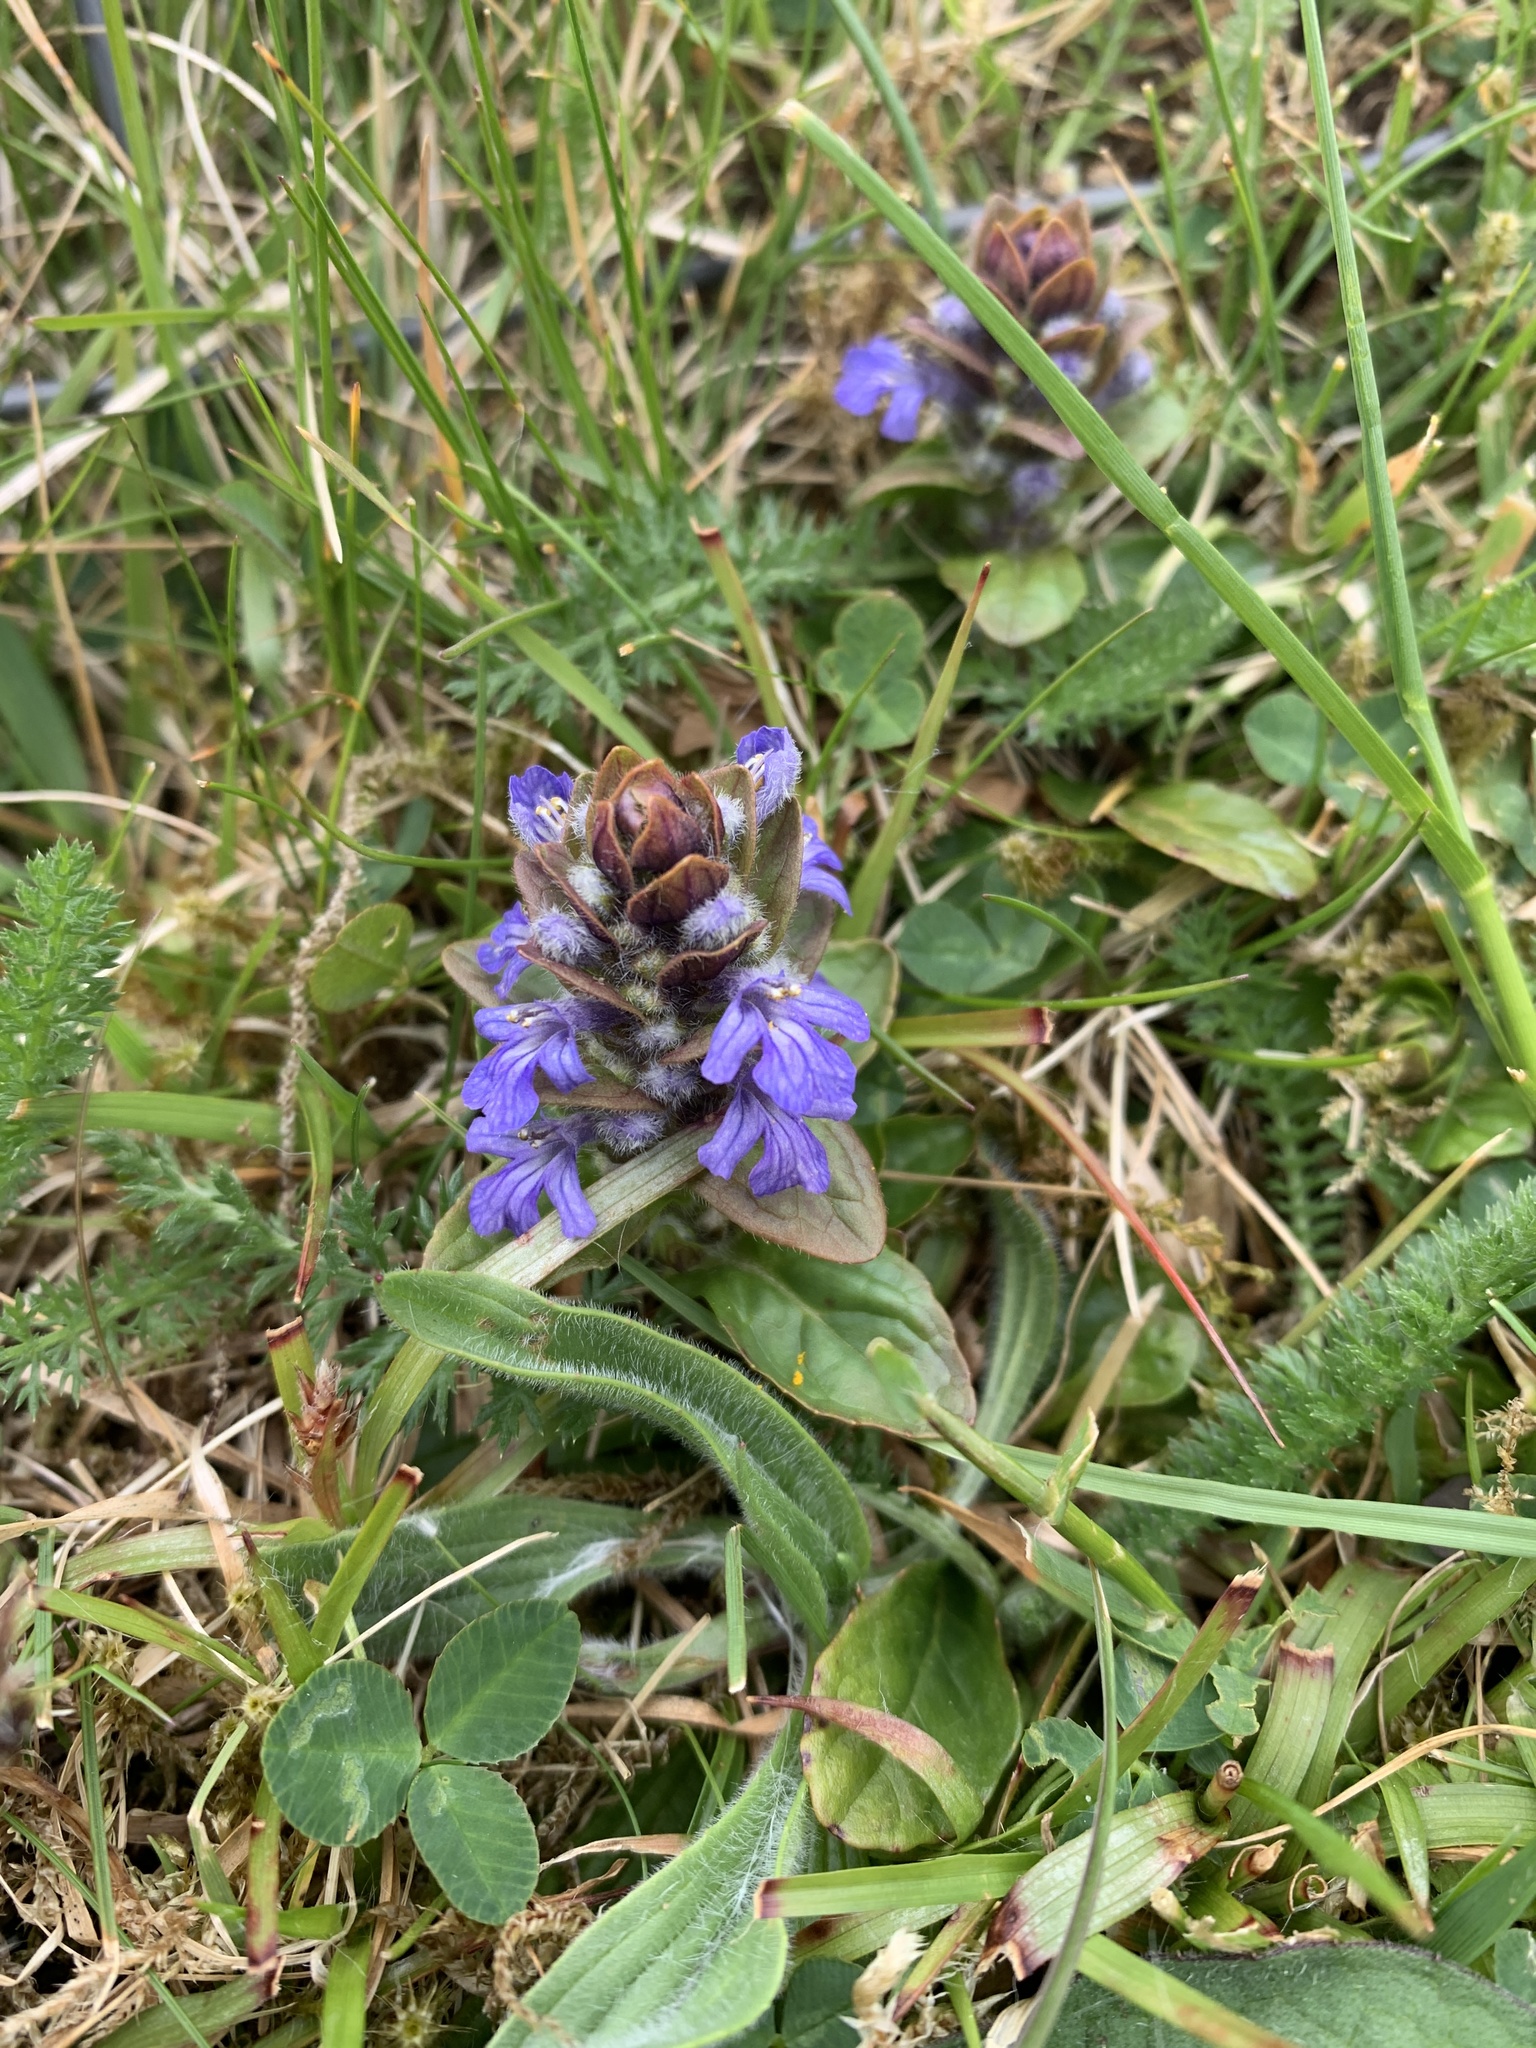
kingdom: Plantae
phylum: Tracheophyta
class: Magnoliopsida
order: Lamiales
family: Lamiaceae
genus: Ajuga
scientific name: Ajuga reptans
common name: Bugle
